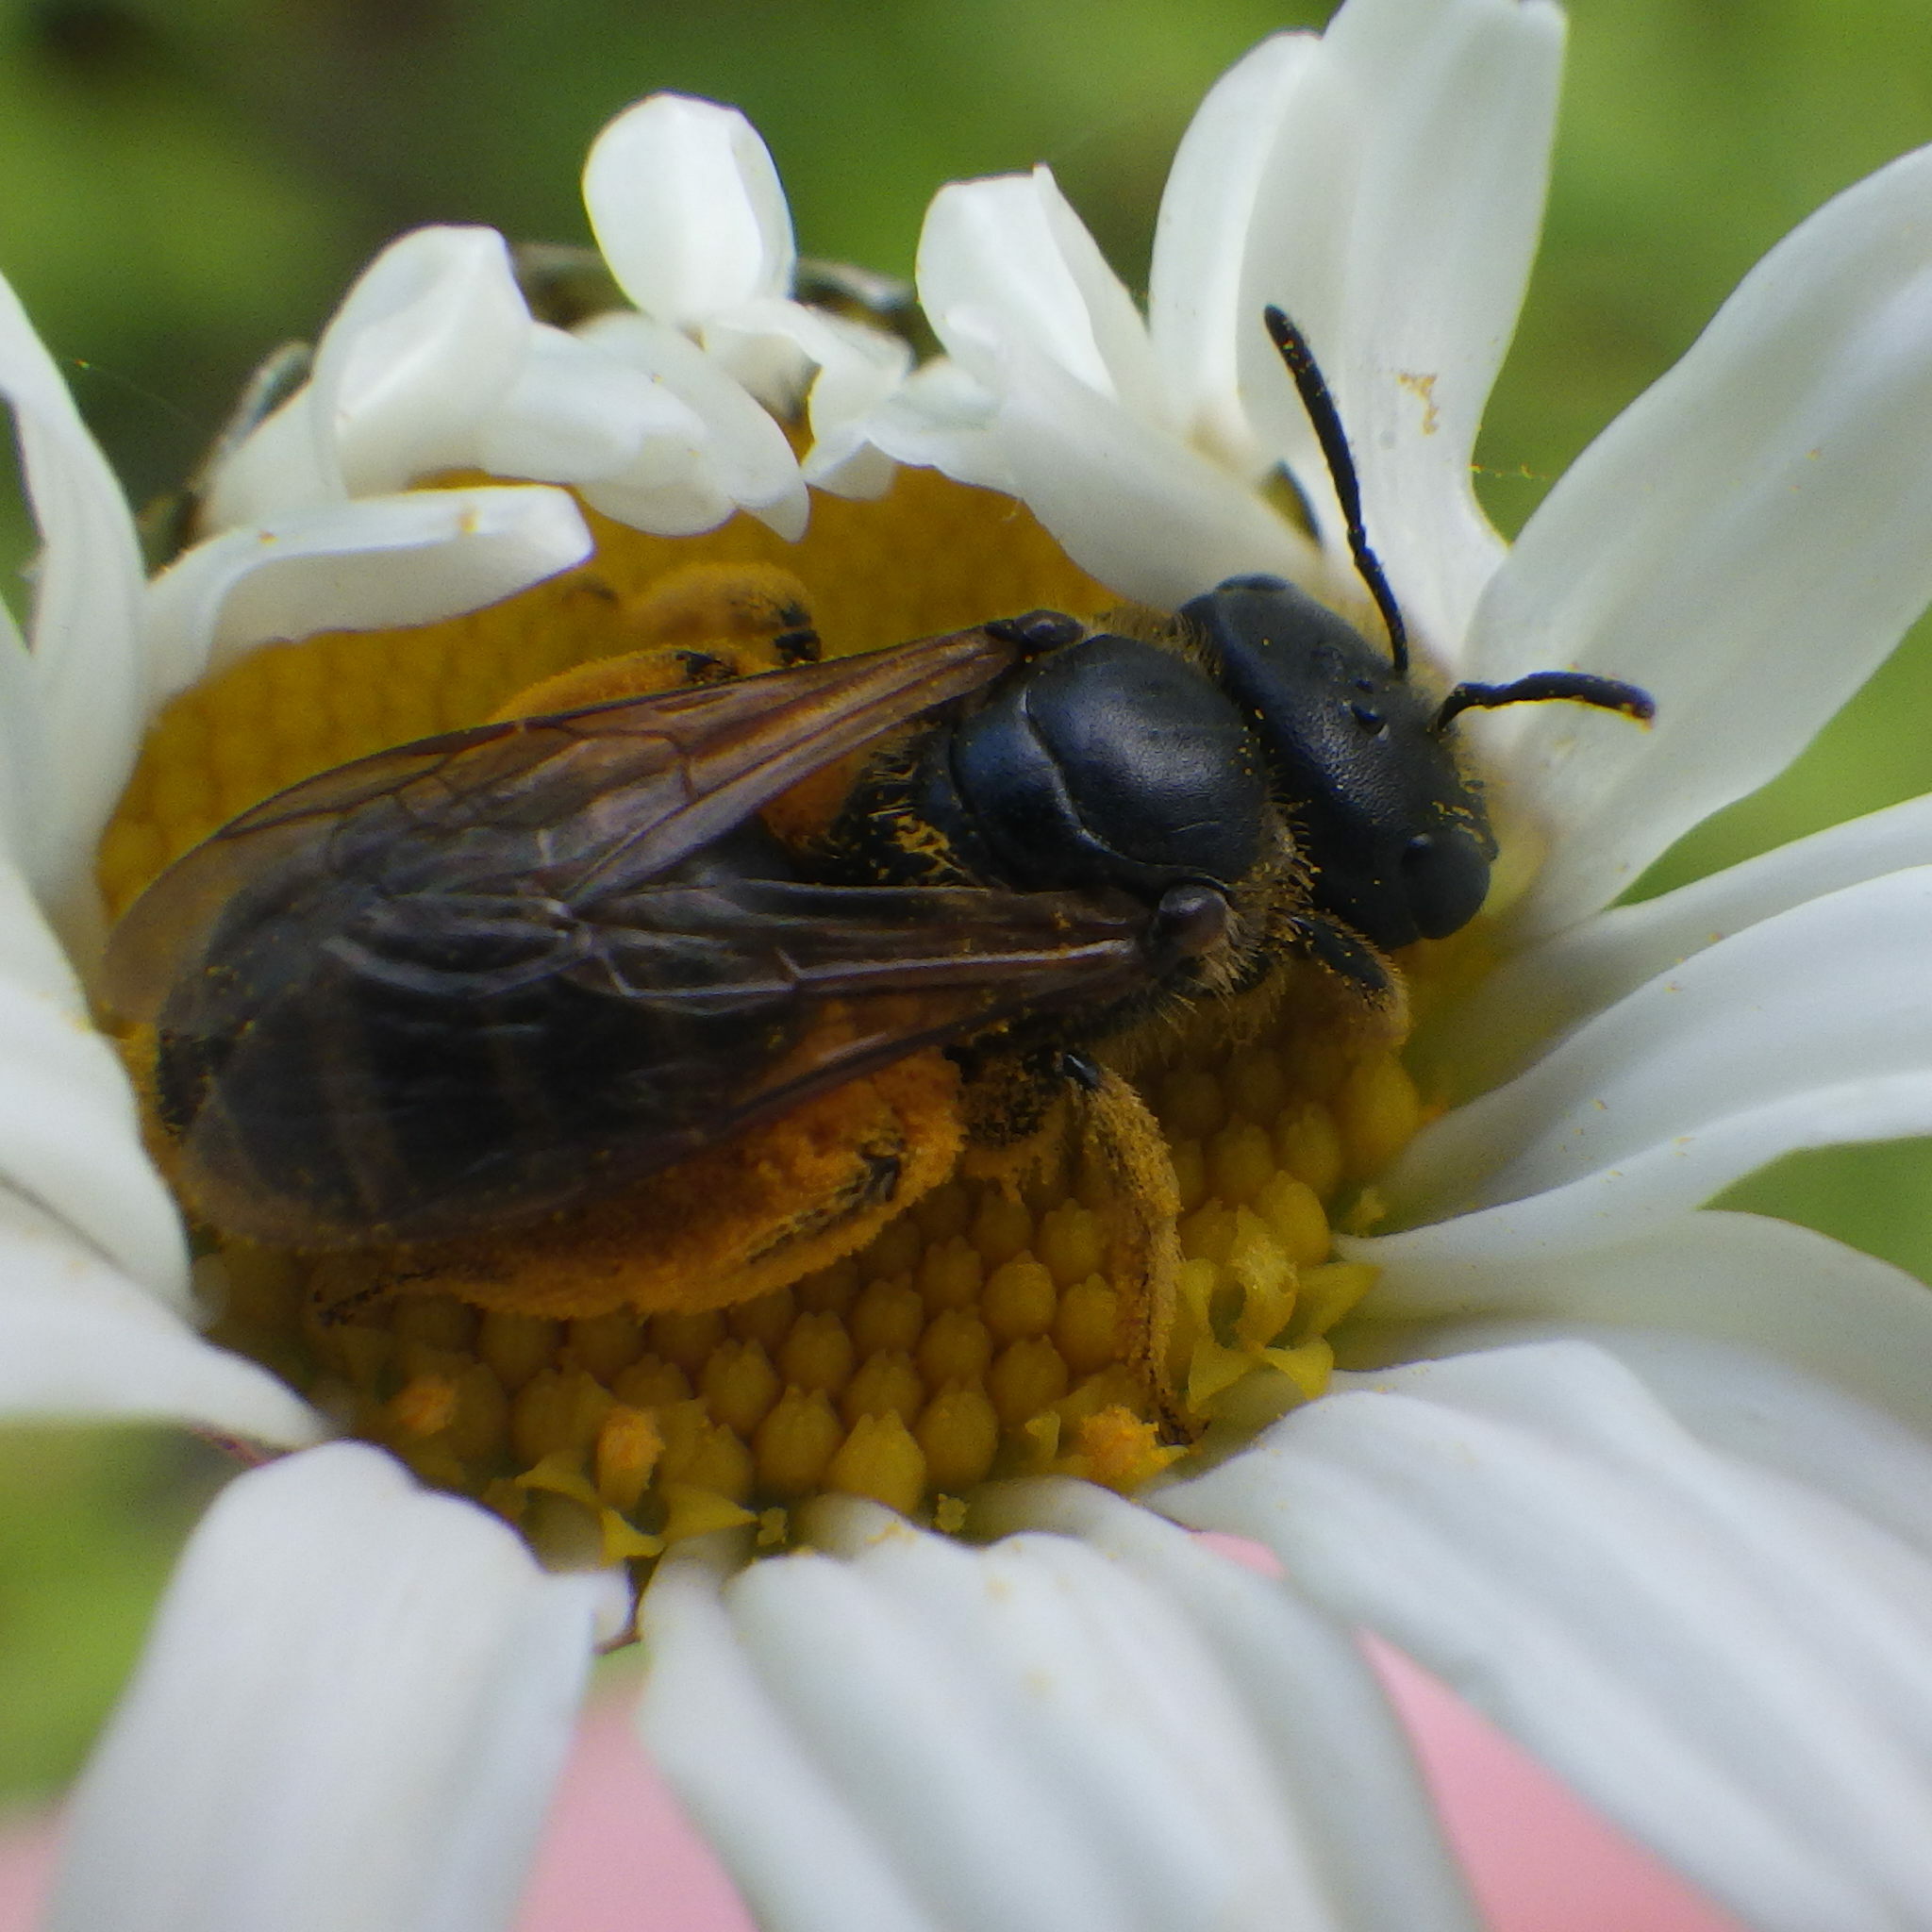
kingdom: Animalia
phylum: Arthropoda
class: Insecta
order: Hymenoptera
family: Halictidae
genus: Halictus
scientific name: Halictus ligatus
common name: Ligated furrow bee
